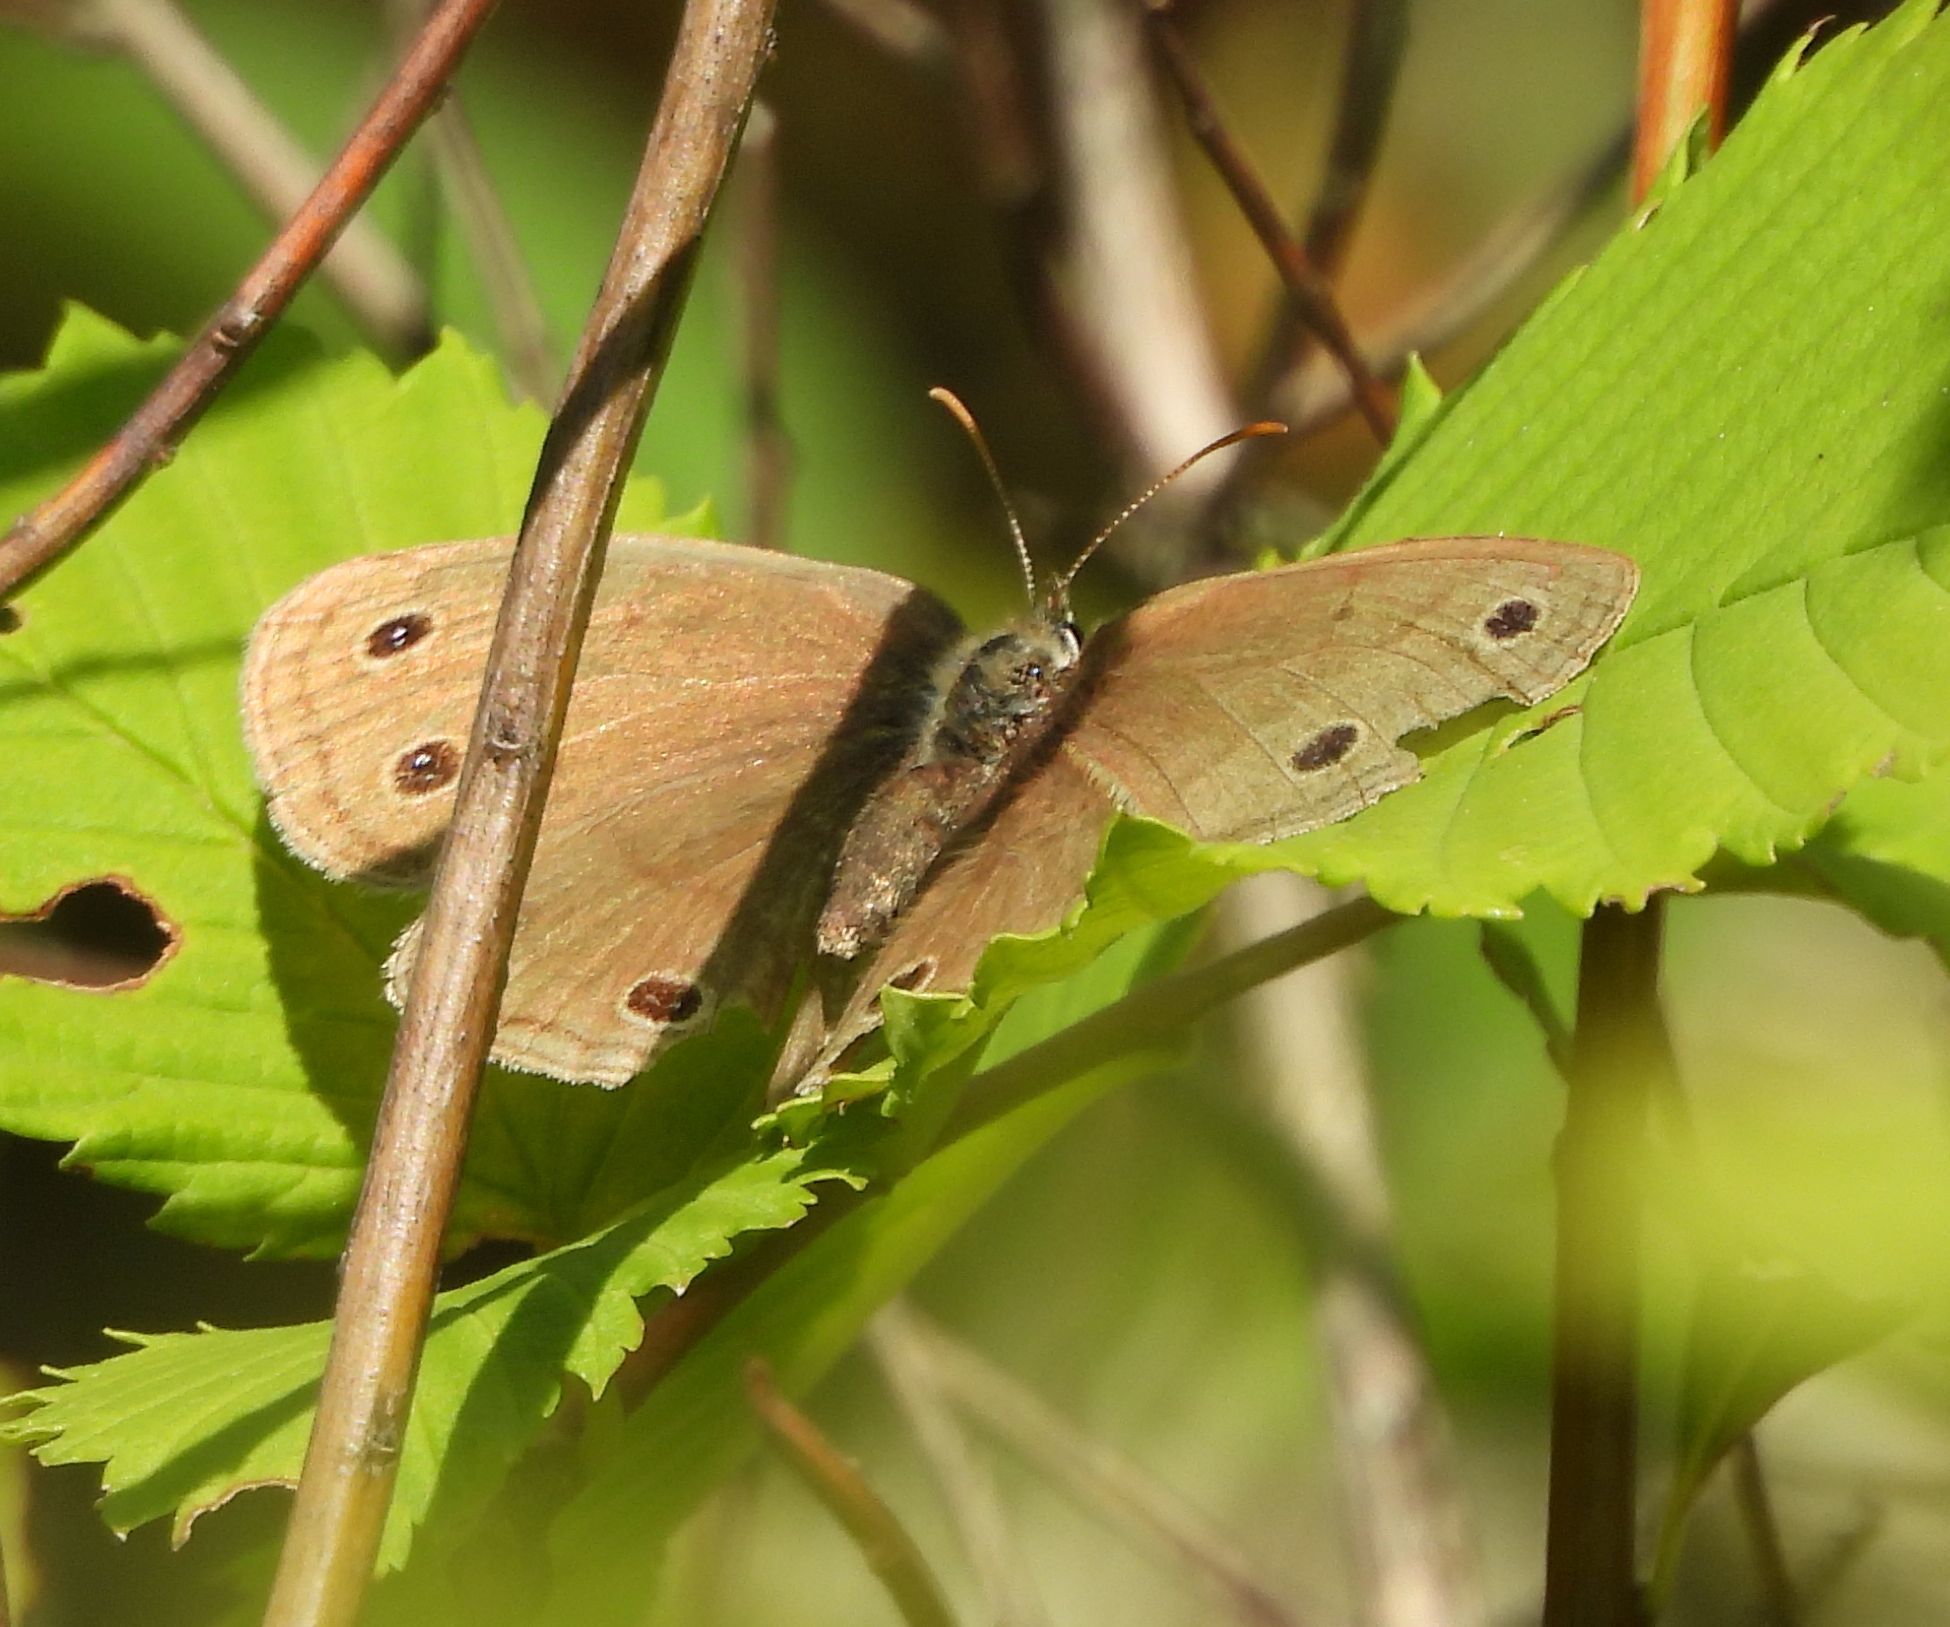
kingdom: Animalia
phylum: Arthropoda
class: Insecta
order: Lepidoptera
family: Nymphalidae
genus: Euptychia
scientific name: Euptychia cymela
